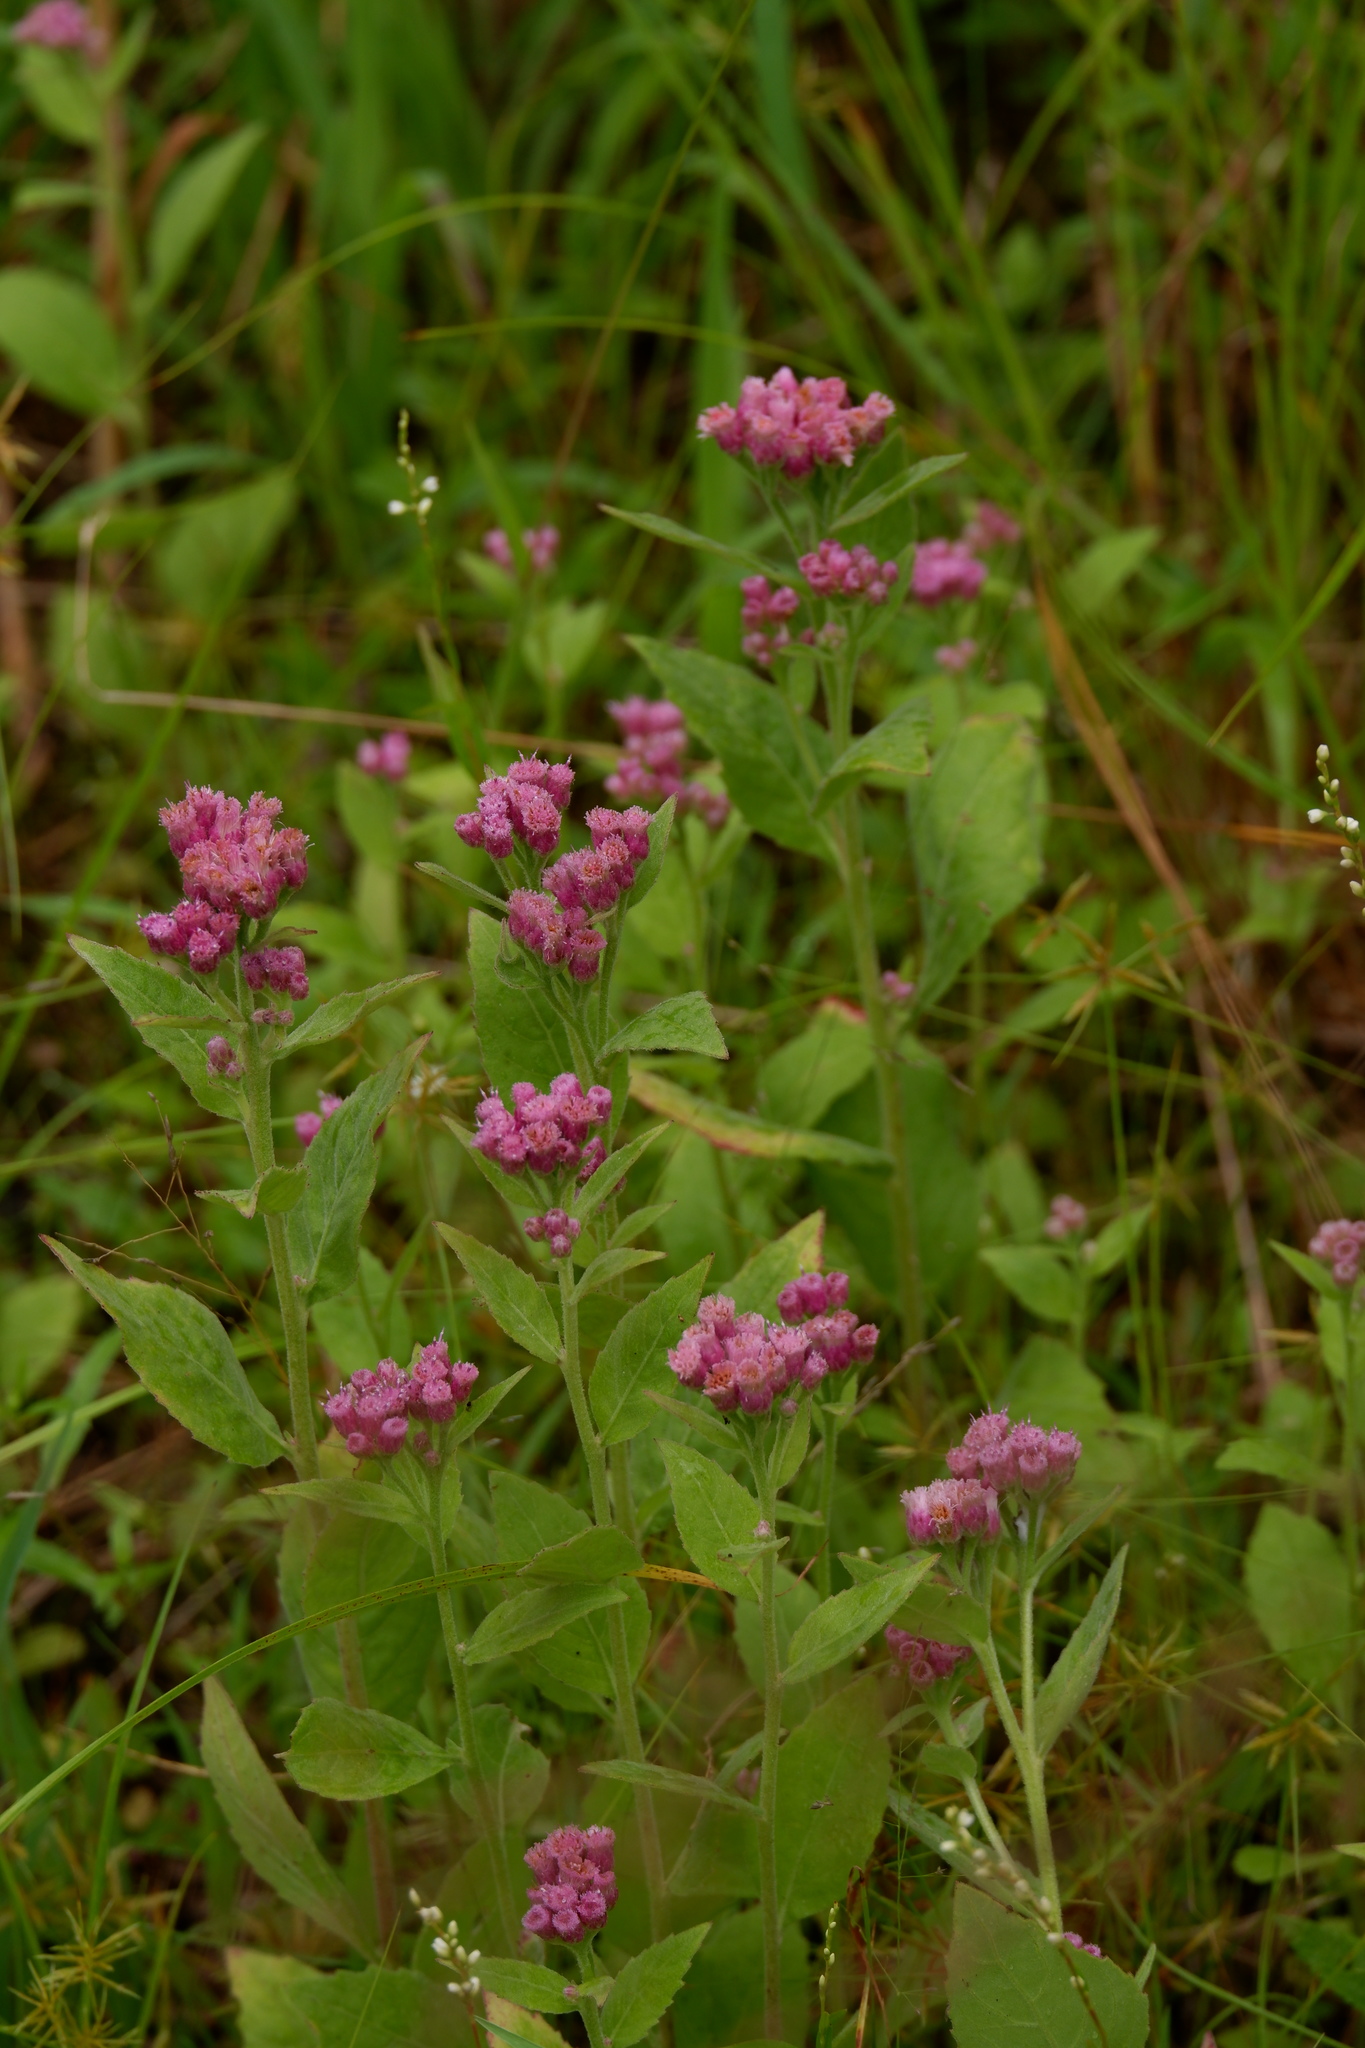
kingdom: Plantae
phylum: Tracheophyta
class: Magnoliopsida
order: Asterales
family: Asteraceae
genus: Pluchea
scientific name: Pluchea odorata
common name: Saltmarsh fleabane
